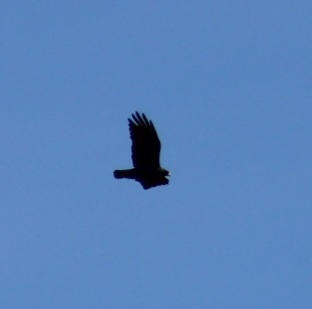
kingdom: Animalia
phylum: Chordata
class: Aves
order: Accipitriformes
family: Accipitridae
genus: Buteo
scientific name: Buteo albonotatus
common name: Zone-tailed hawk
